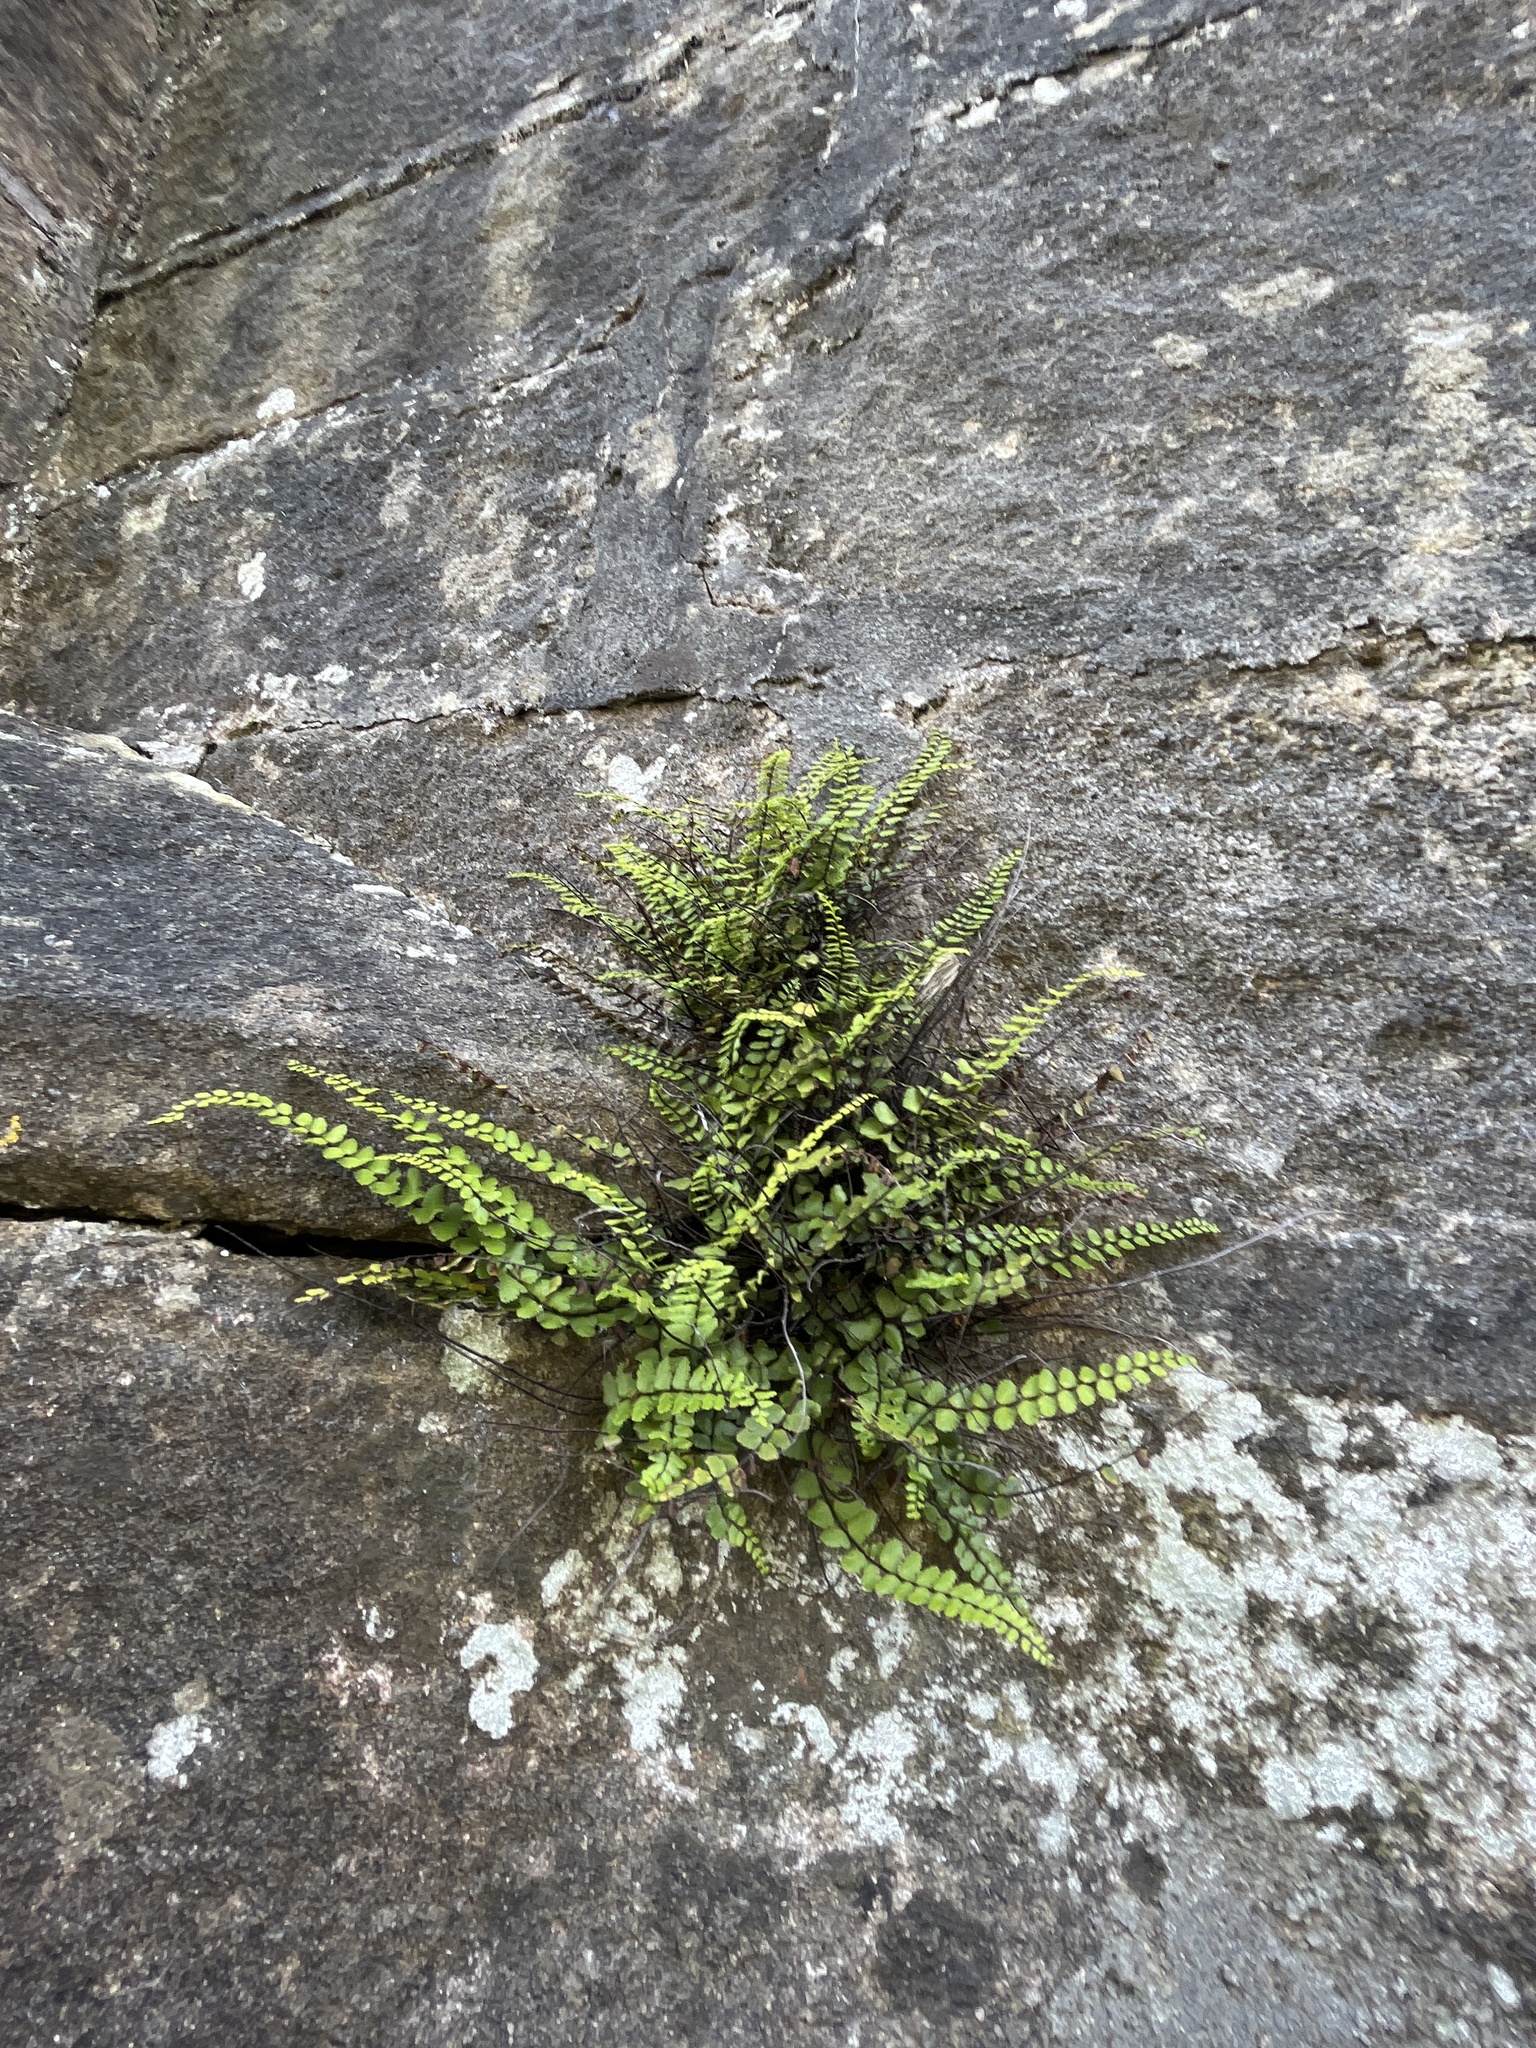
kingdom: Plantae
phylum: Tracheophyta
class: Polypodiopsida
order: Polypodiales
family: Aspleniaceae
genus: Asplenium
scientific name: Asplenium trichomanes
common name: Maidenhair spleenwort
